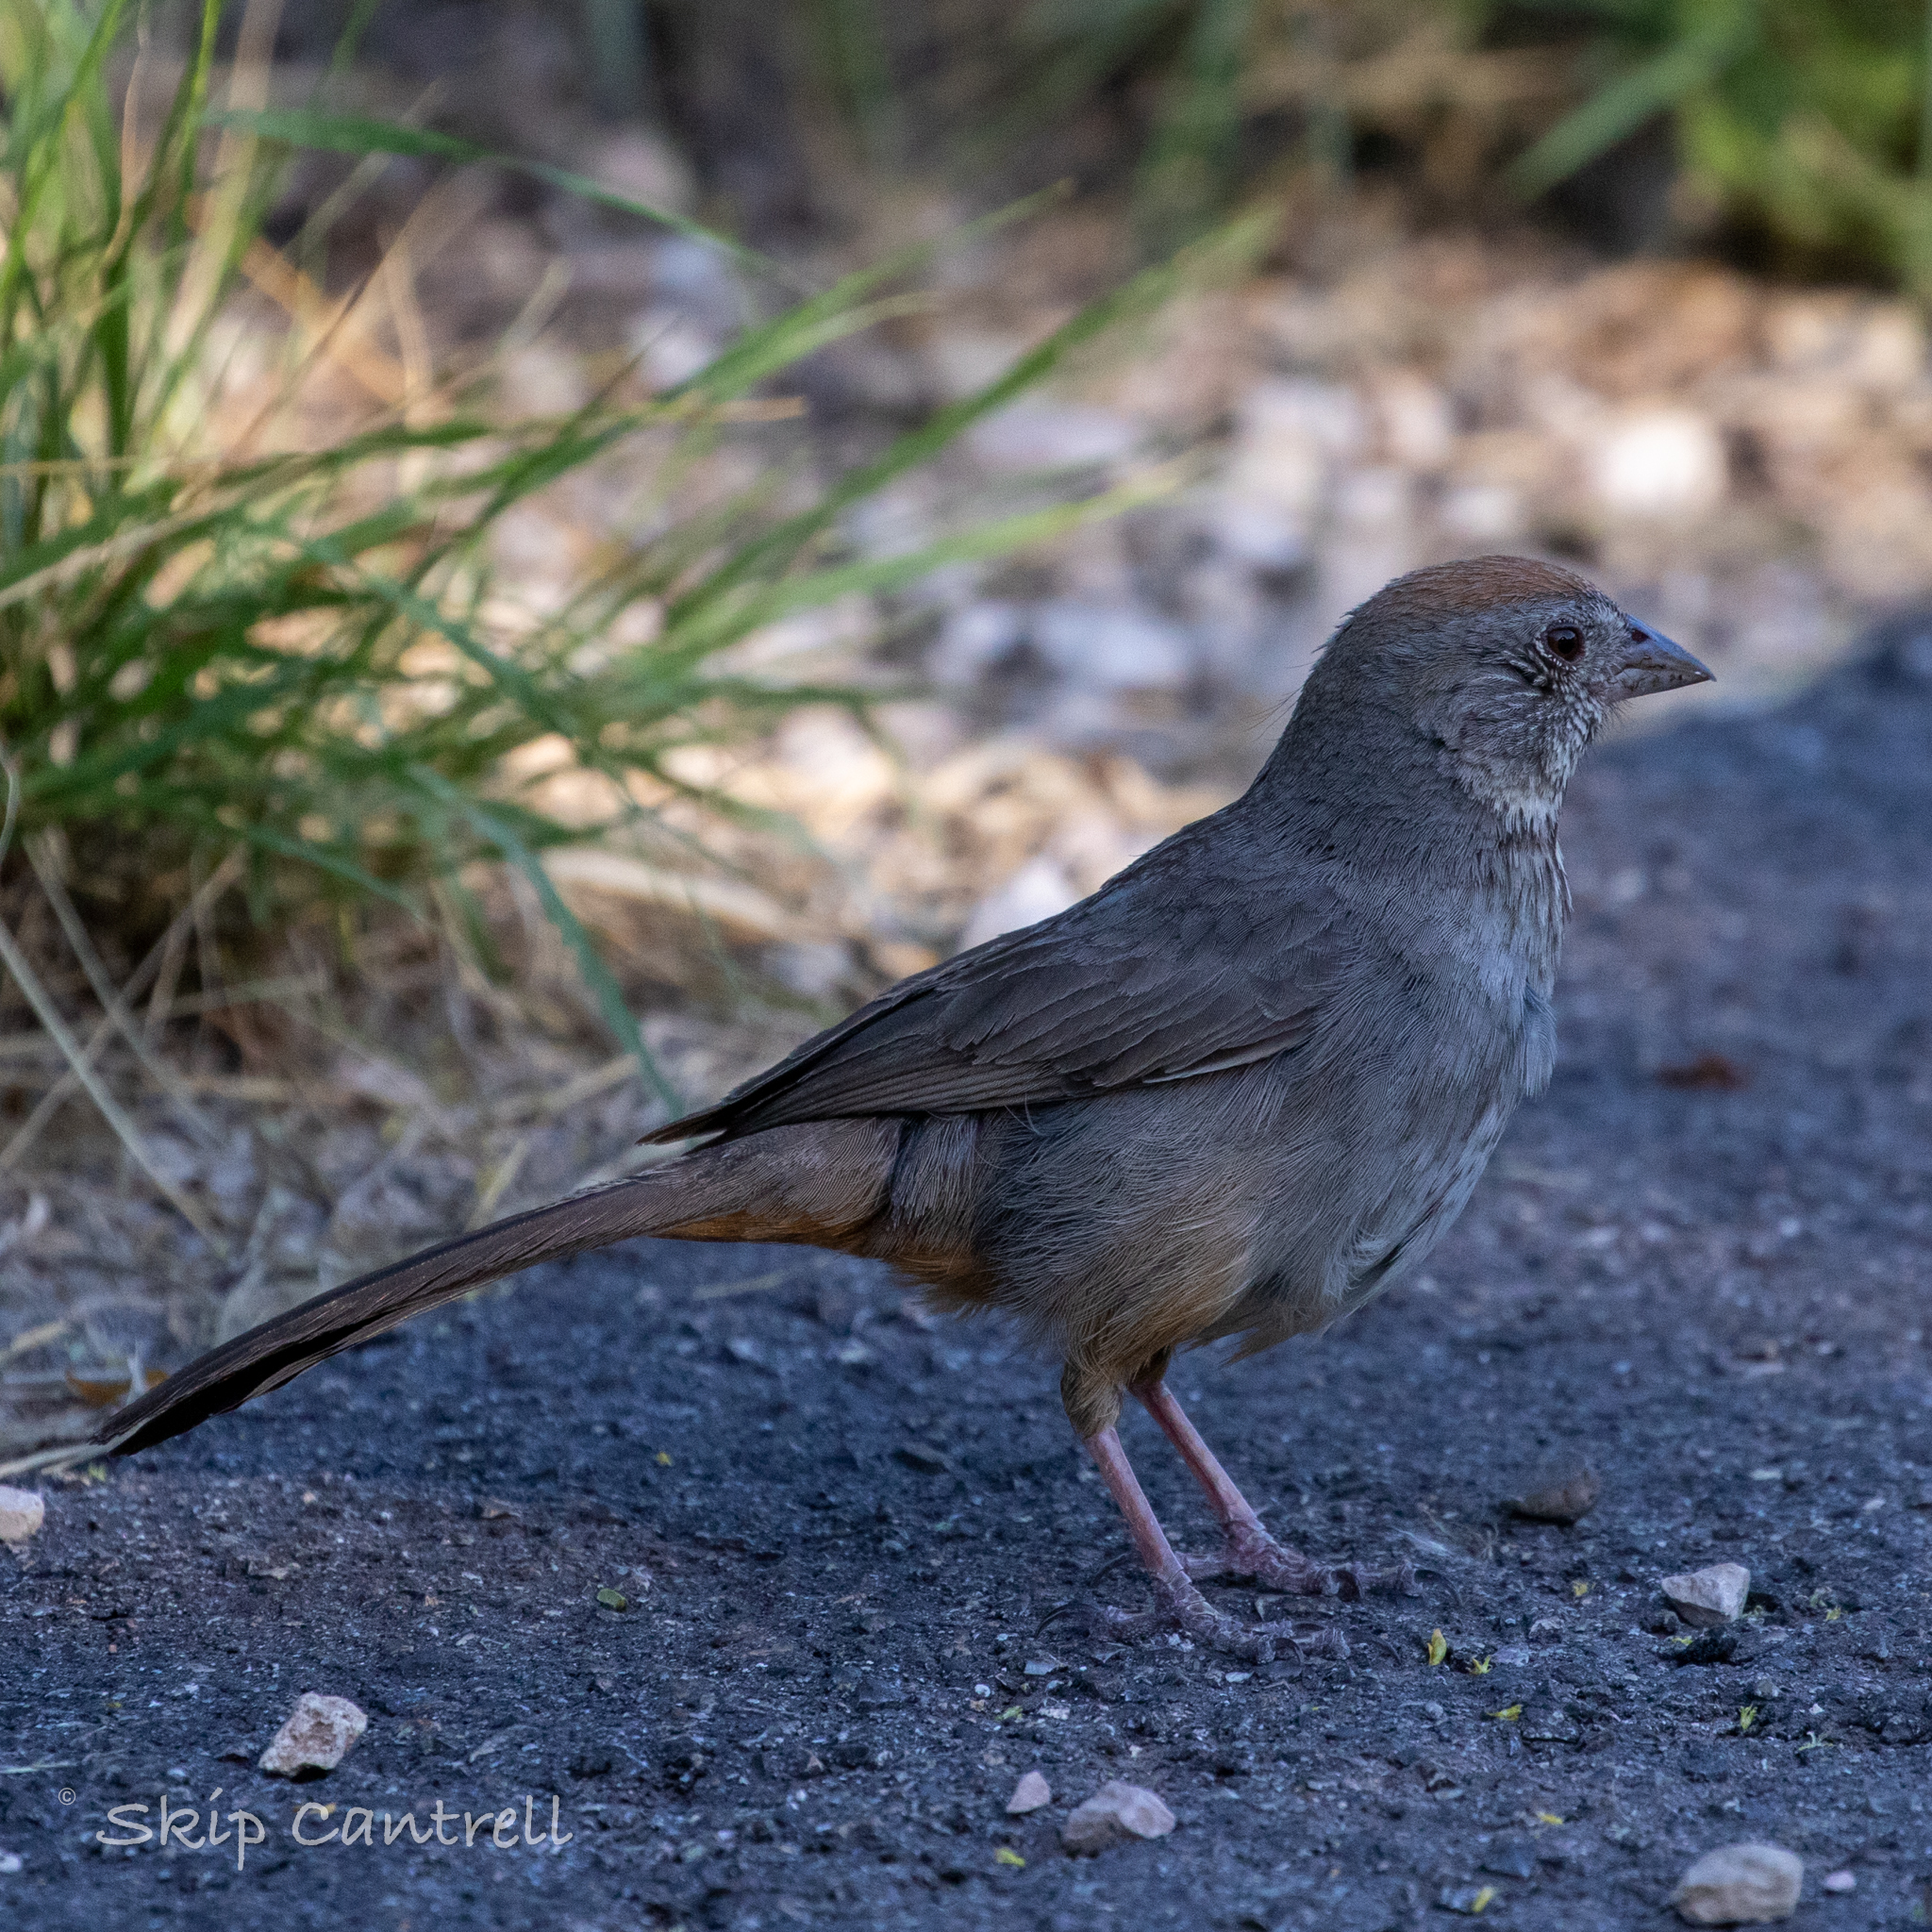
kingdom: Animalia
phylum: Chordata
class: Aves
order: Passeriformes
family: Passerellidae
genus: Melozone
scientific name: Melozone fusca
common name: Canyon towhee
